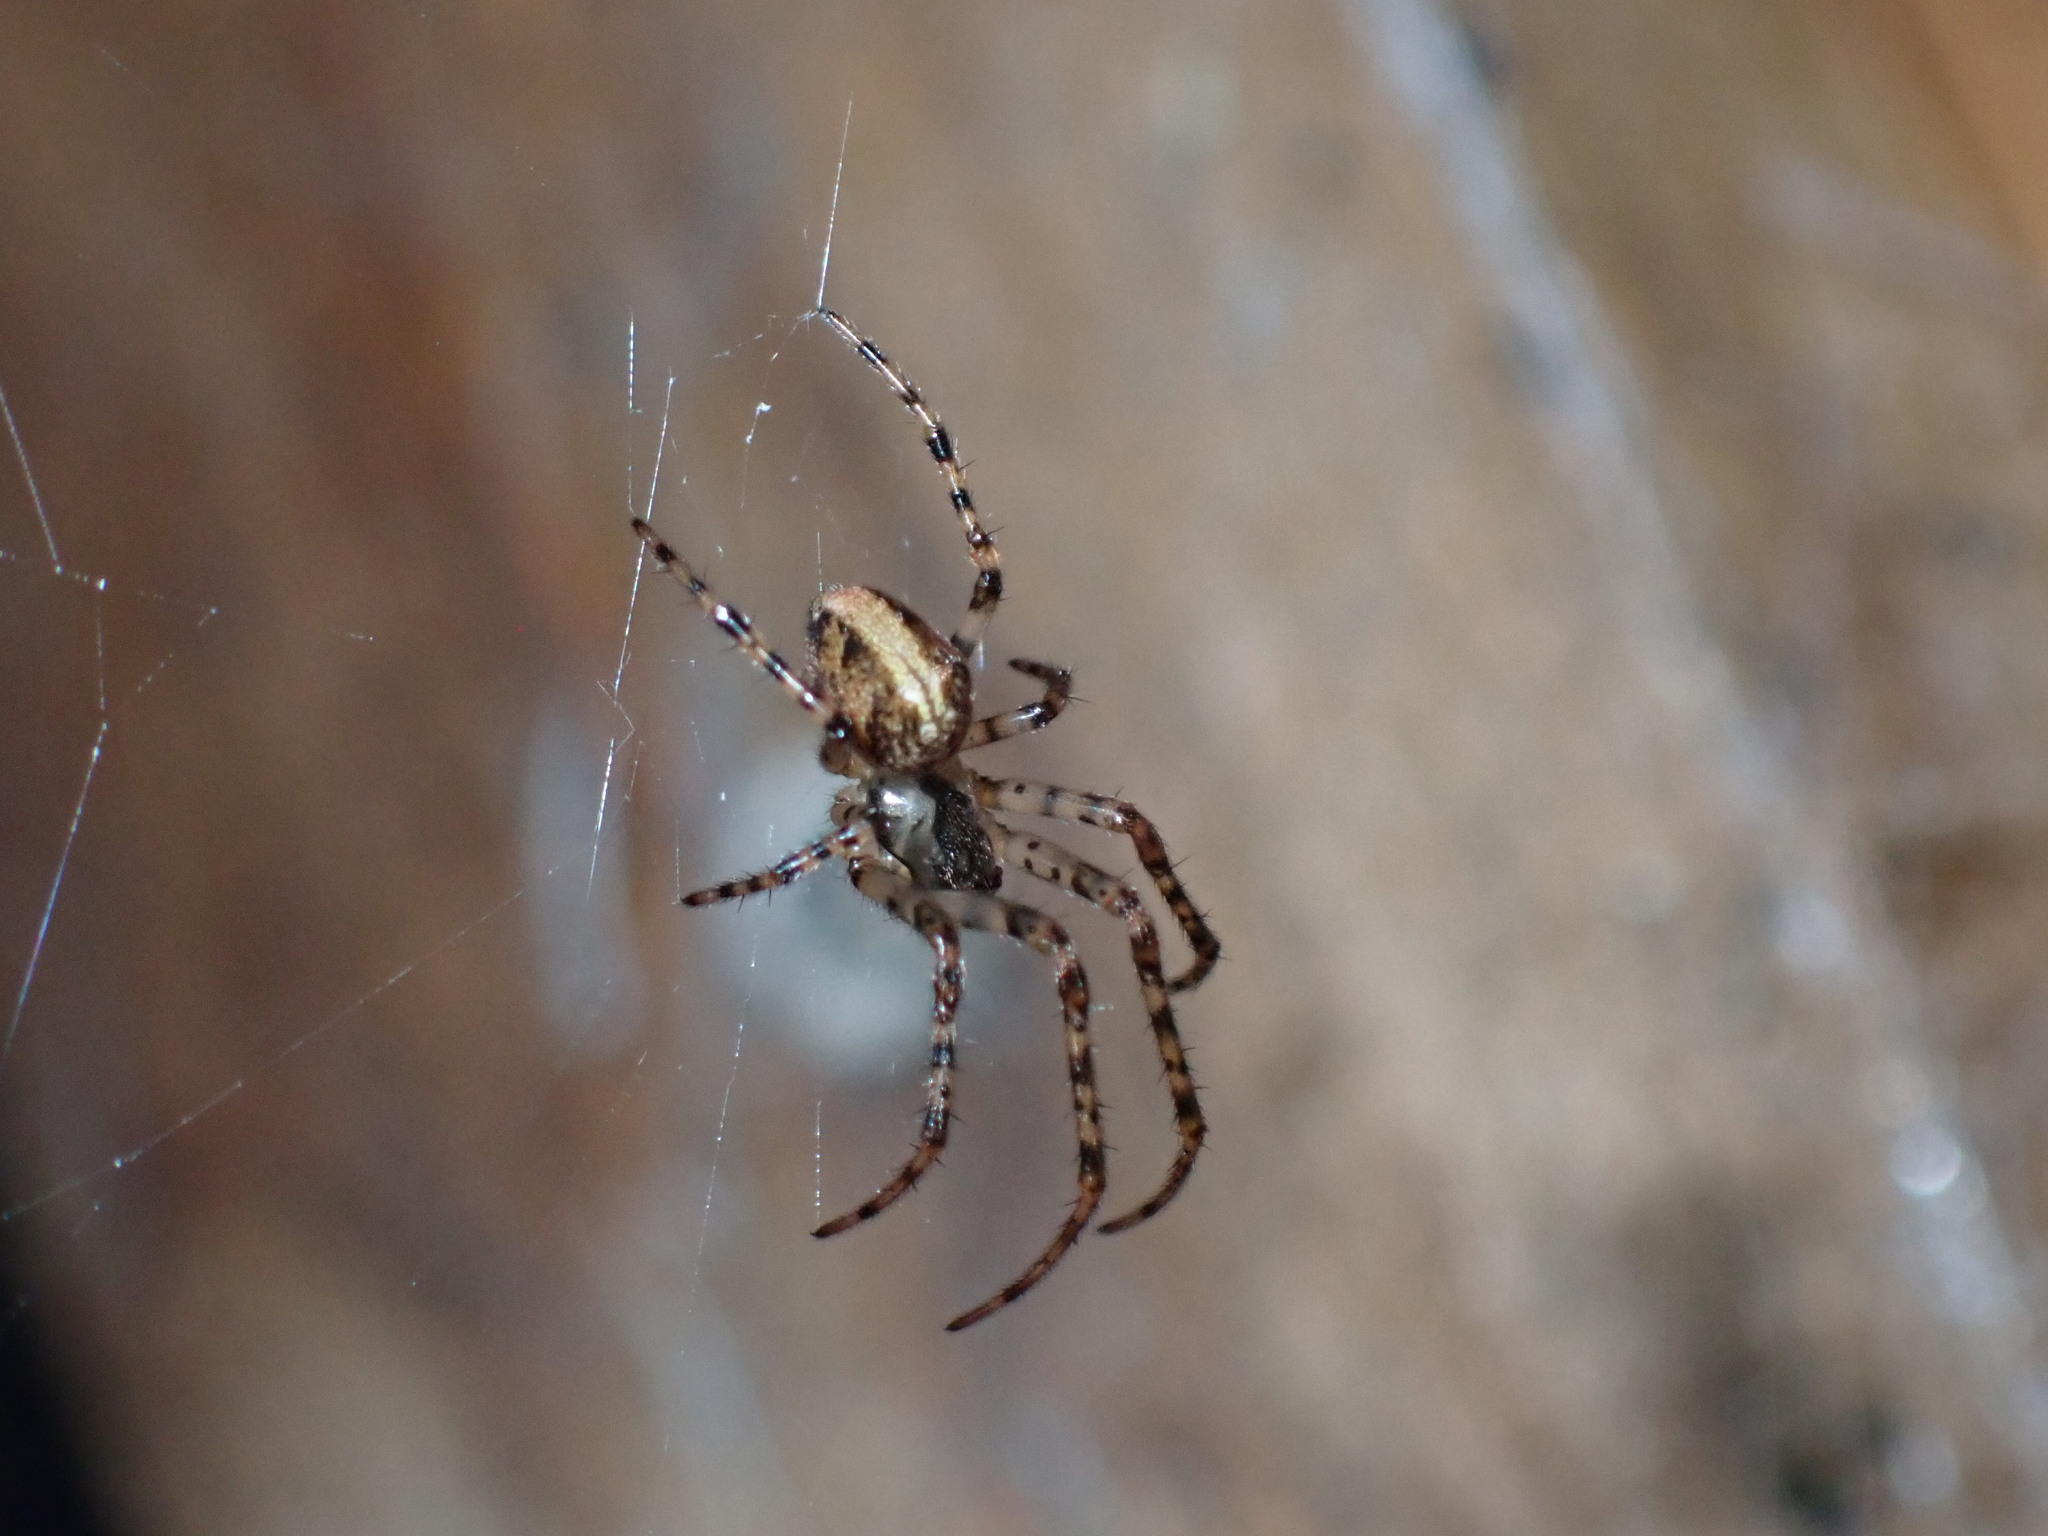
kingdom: Animalia
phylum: Arthropoda
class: Arachnida
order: Araneae
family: Tetragnathidae
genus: Metellina
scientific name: Metellina merianae
